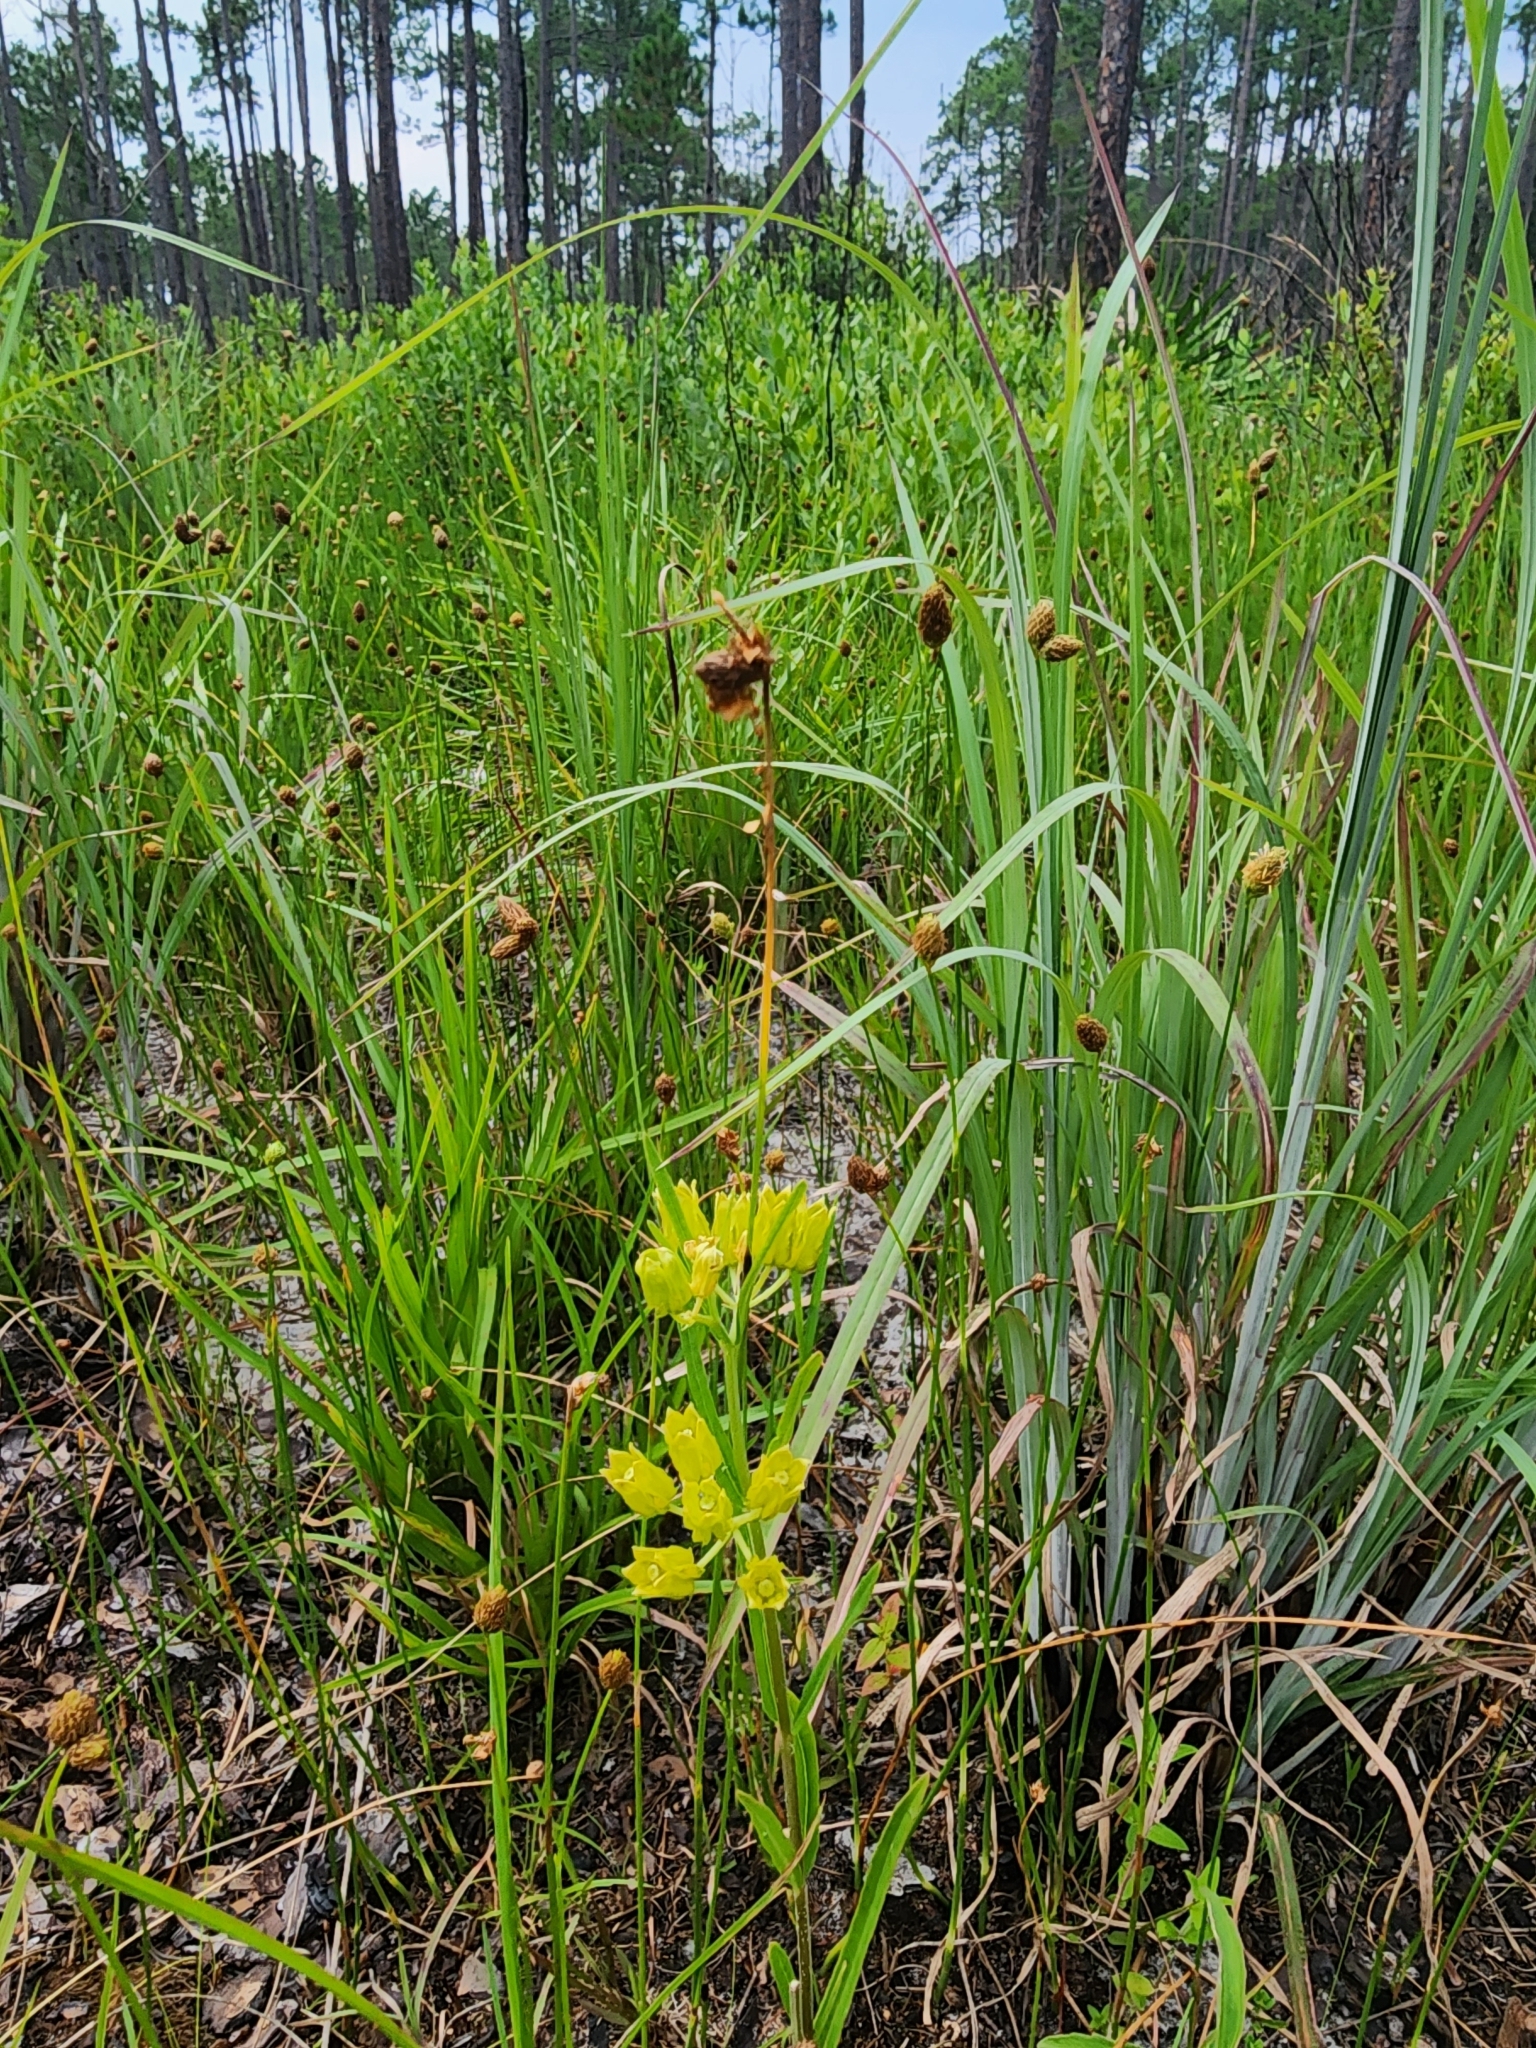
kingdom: Plantae
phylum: Tracheophyta
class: Magnoliopsida
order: Gentianales
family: Apocynaceae
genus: Asclepias
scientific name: Asclepias pedicellata
